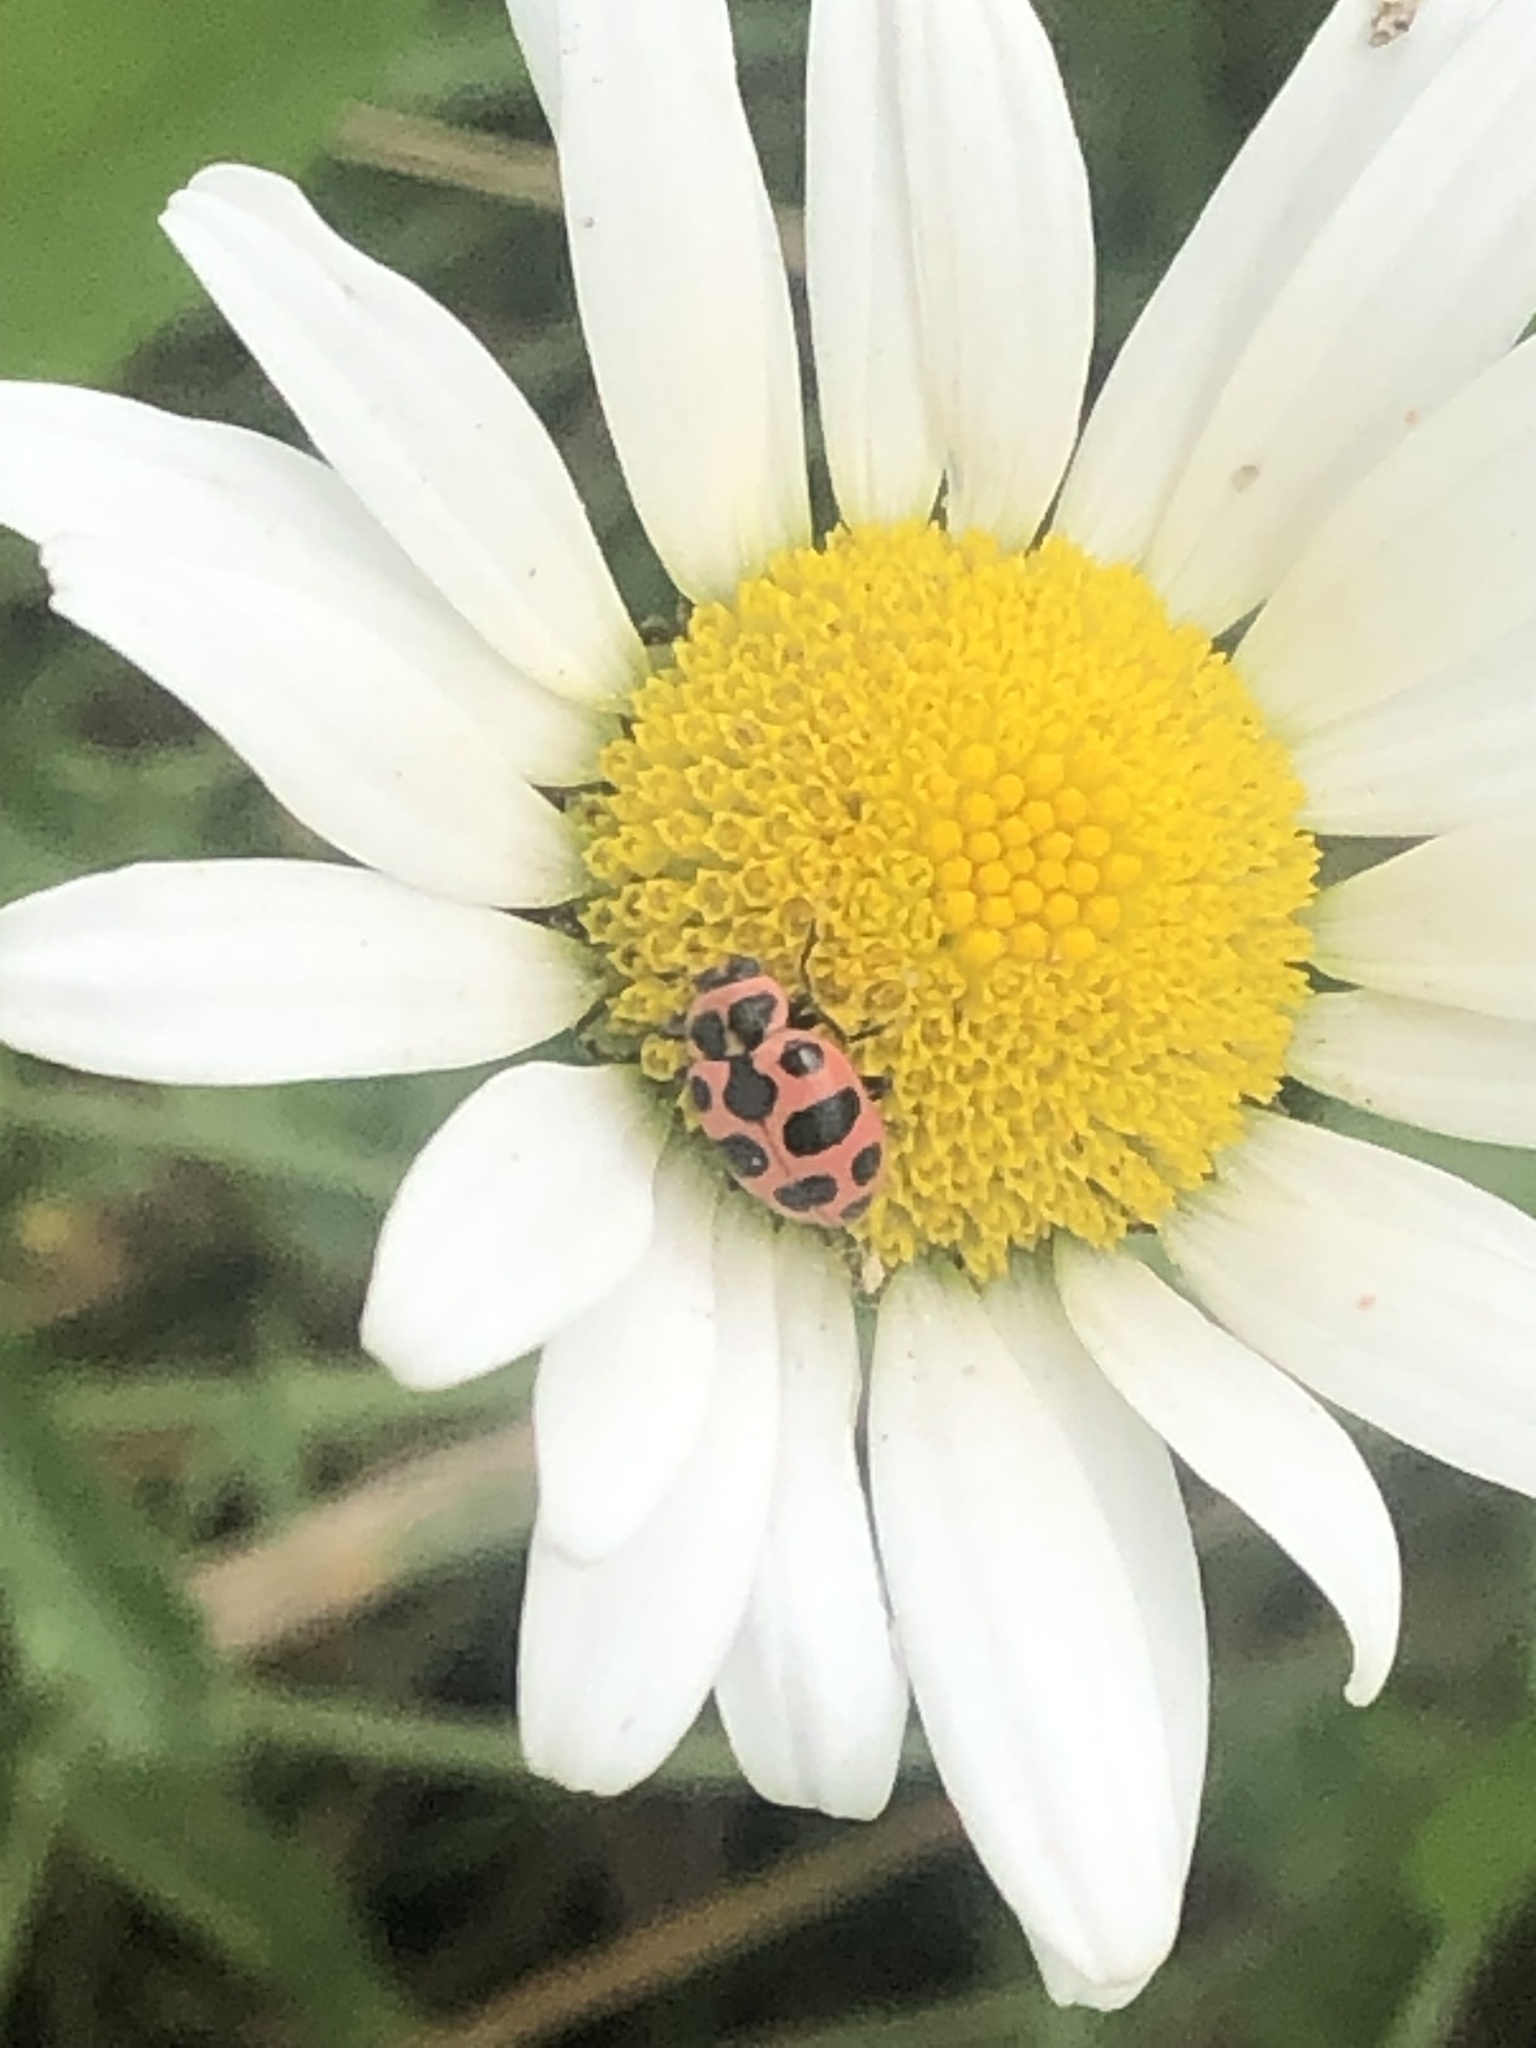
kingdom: Animalia
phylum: Arthropoda
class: Insecta
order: Coleoptera
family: Coccinellidae
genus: Coleomegilla
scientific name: Coleomegilla maculata
